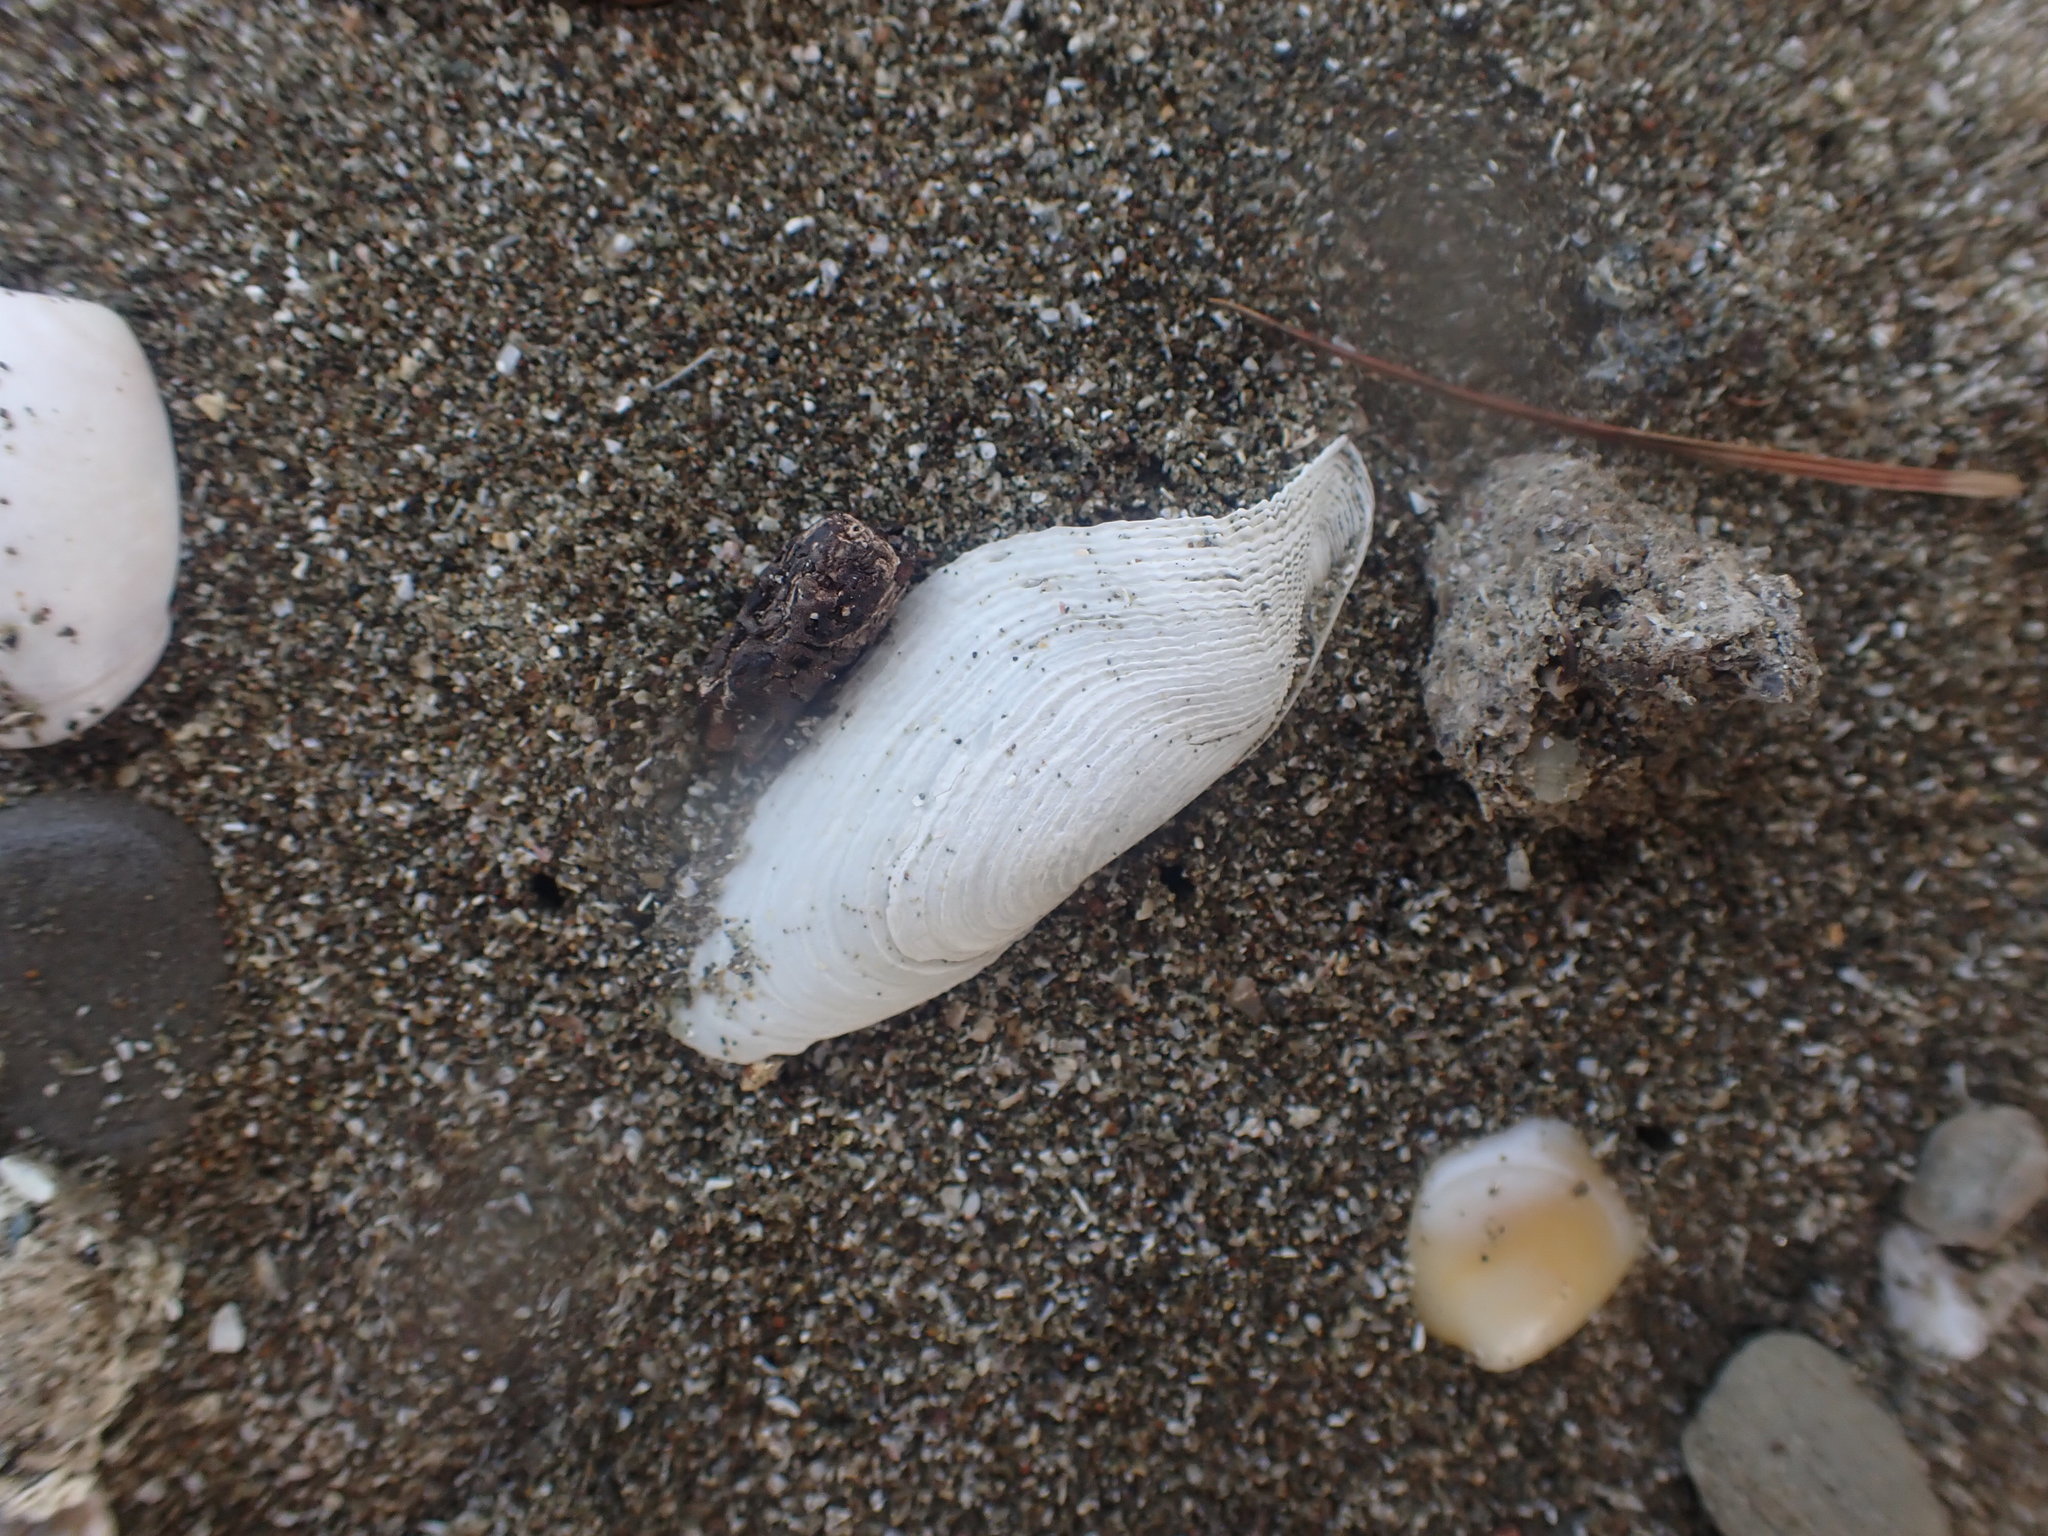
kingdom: Animalia
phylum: Mollusca
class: Bivalvia
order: Myida
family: Pholadidae
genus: Barnea
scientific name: Barnea similis
